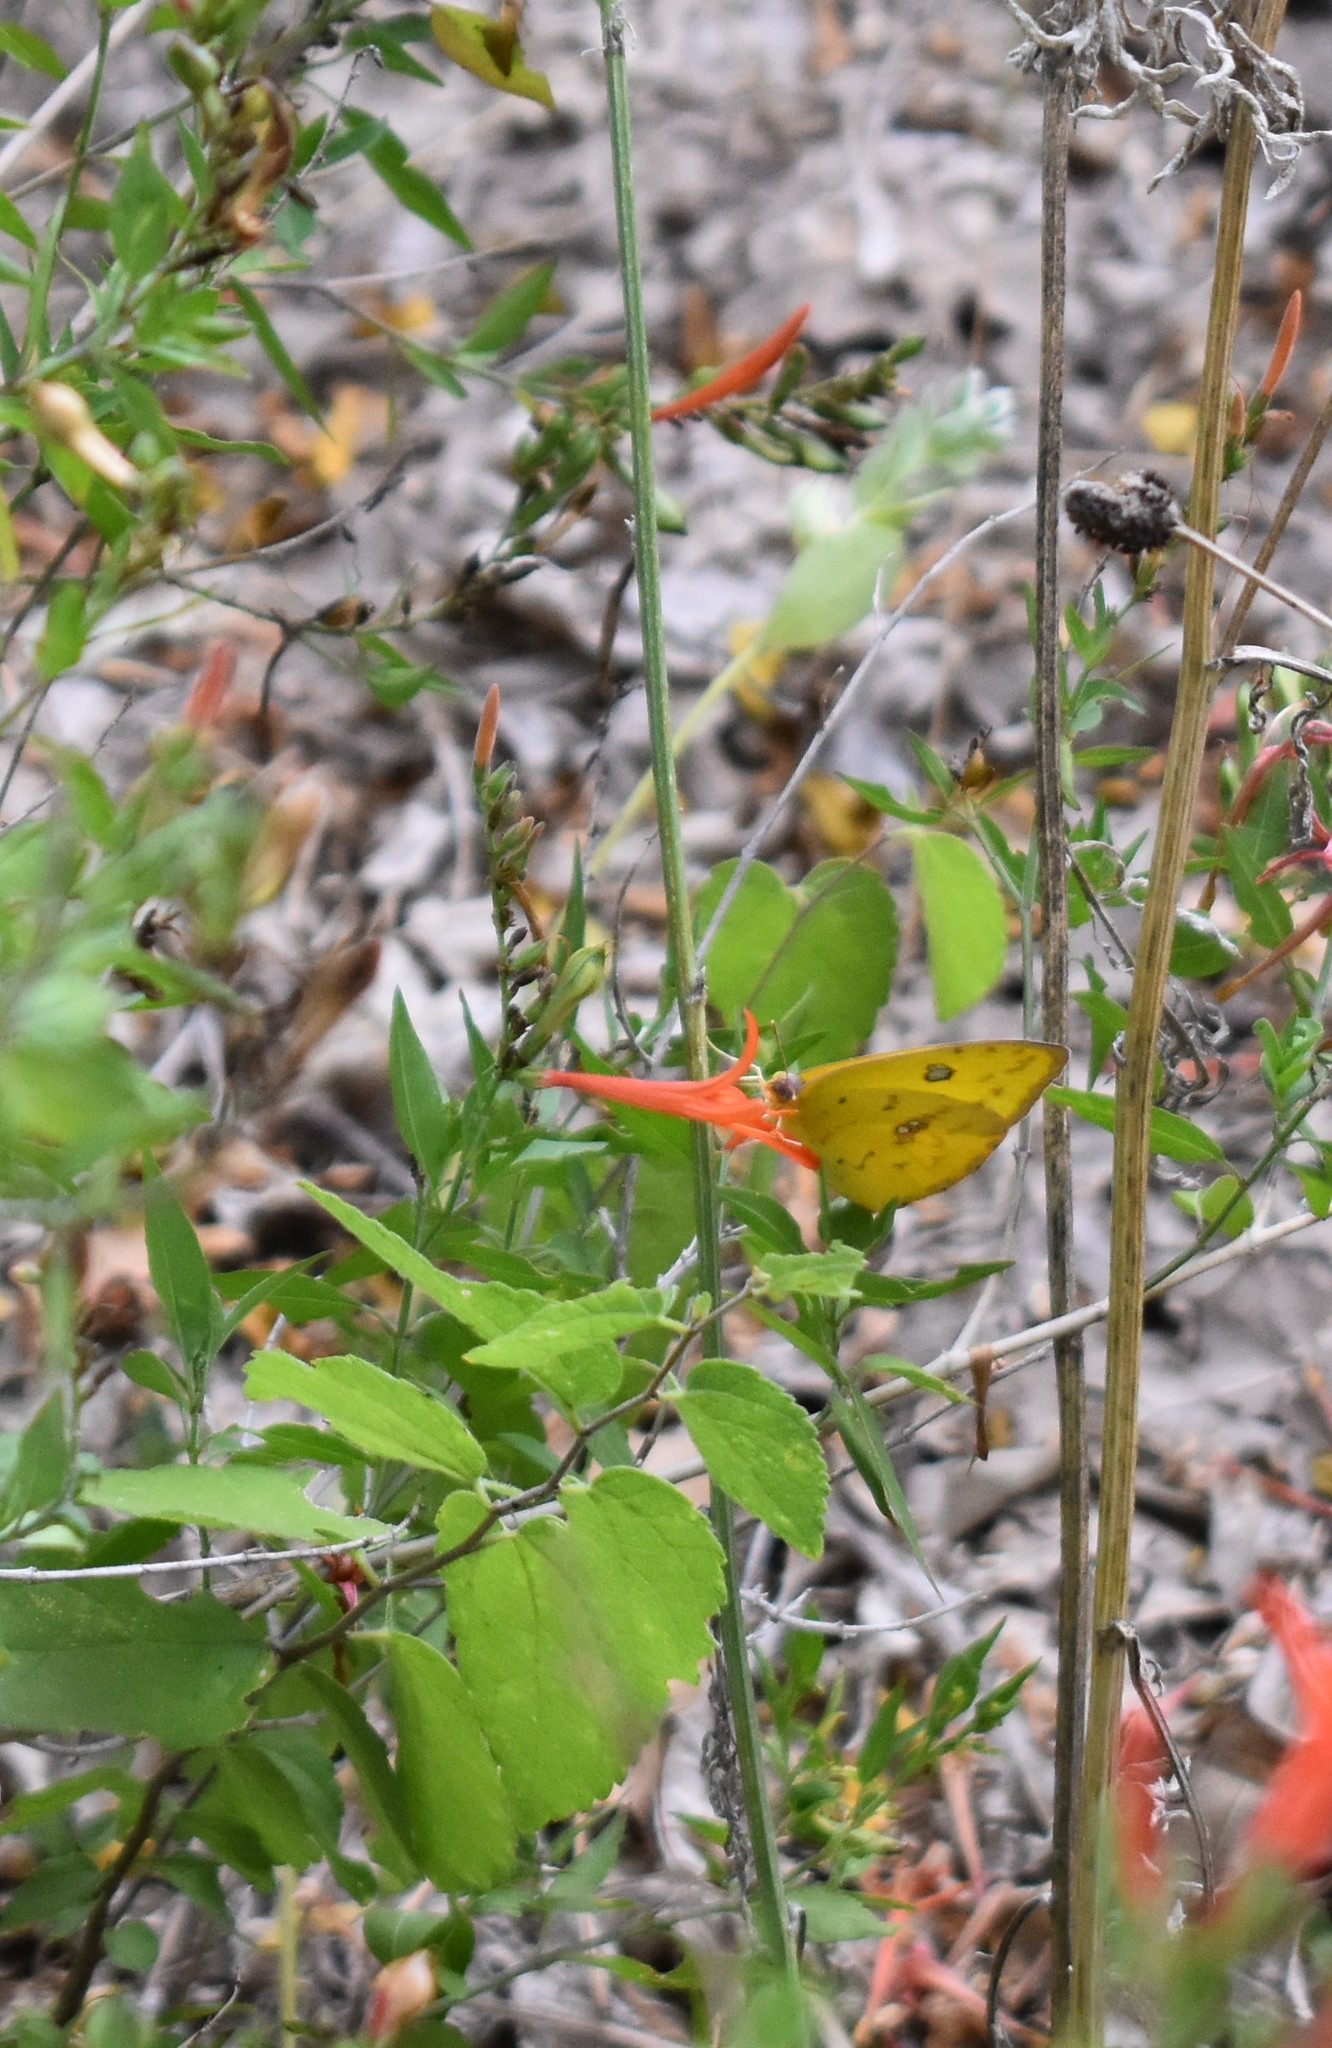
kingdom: Animalia
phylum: Arthropoda
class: Insecta
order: Lepidoptera
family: Pieridae
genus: Phoebis
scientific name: Phoebis sennae
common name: Cloudless sulphur
